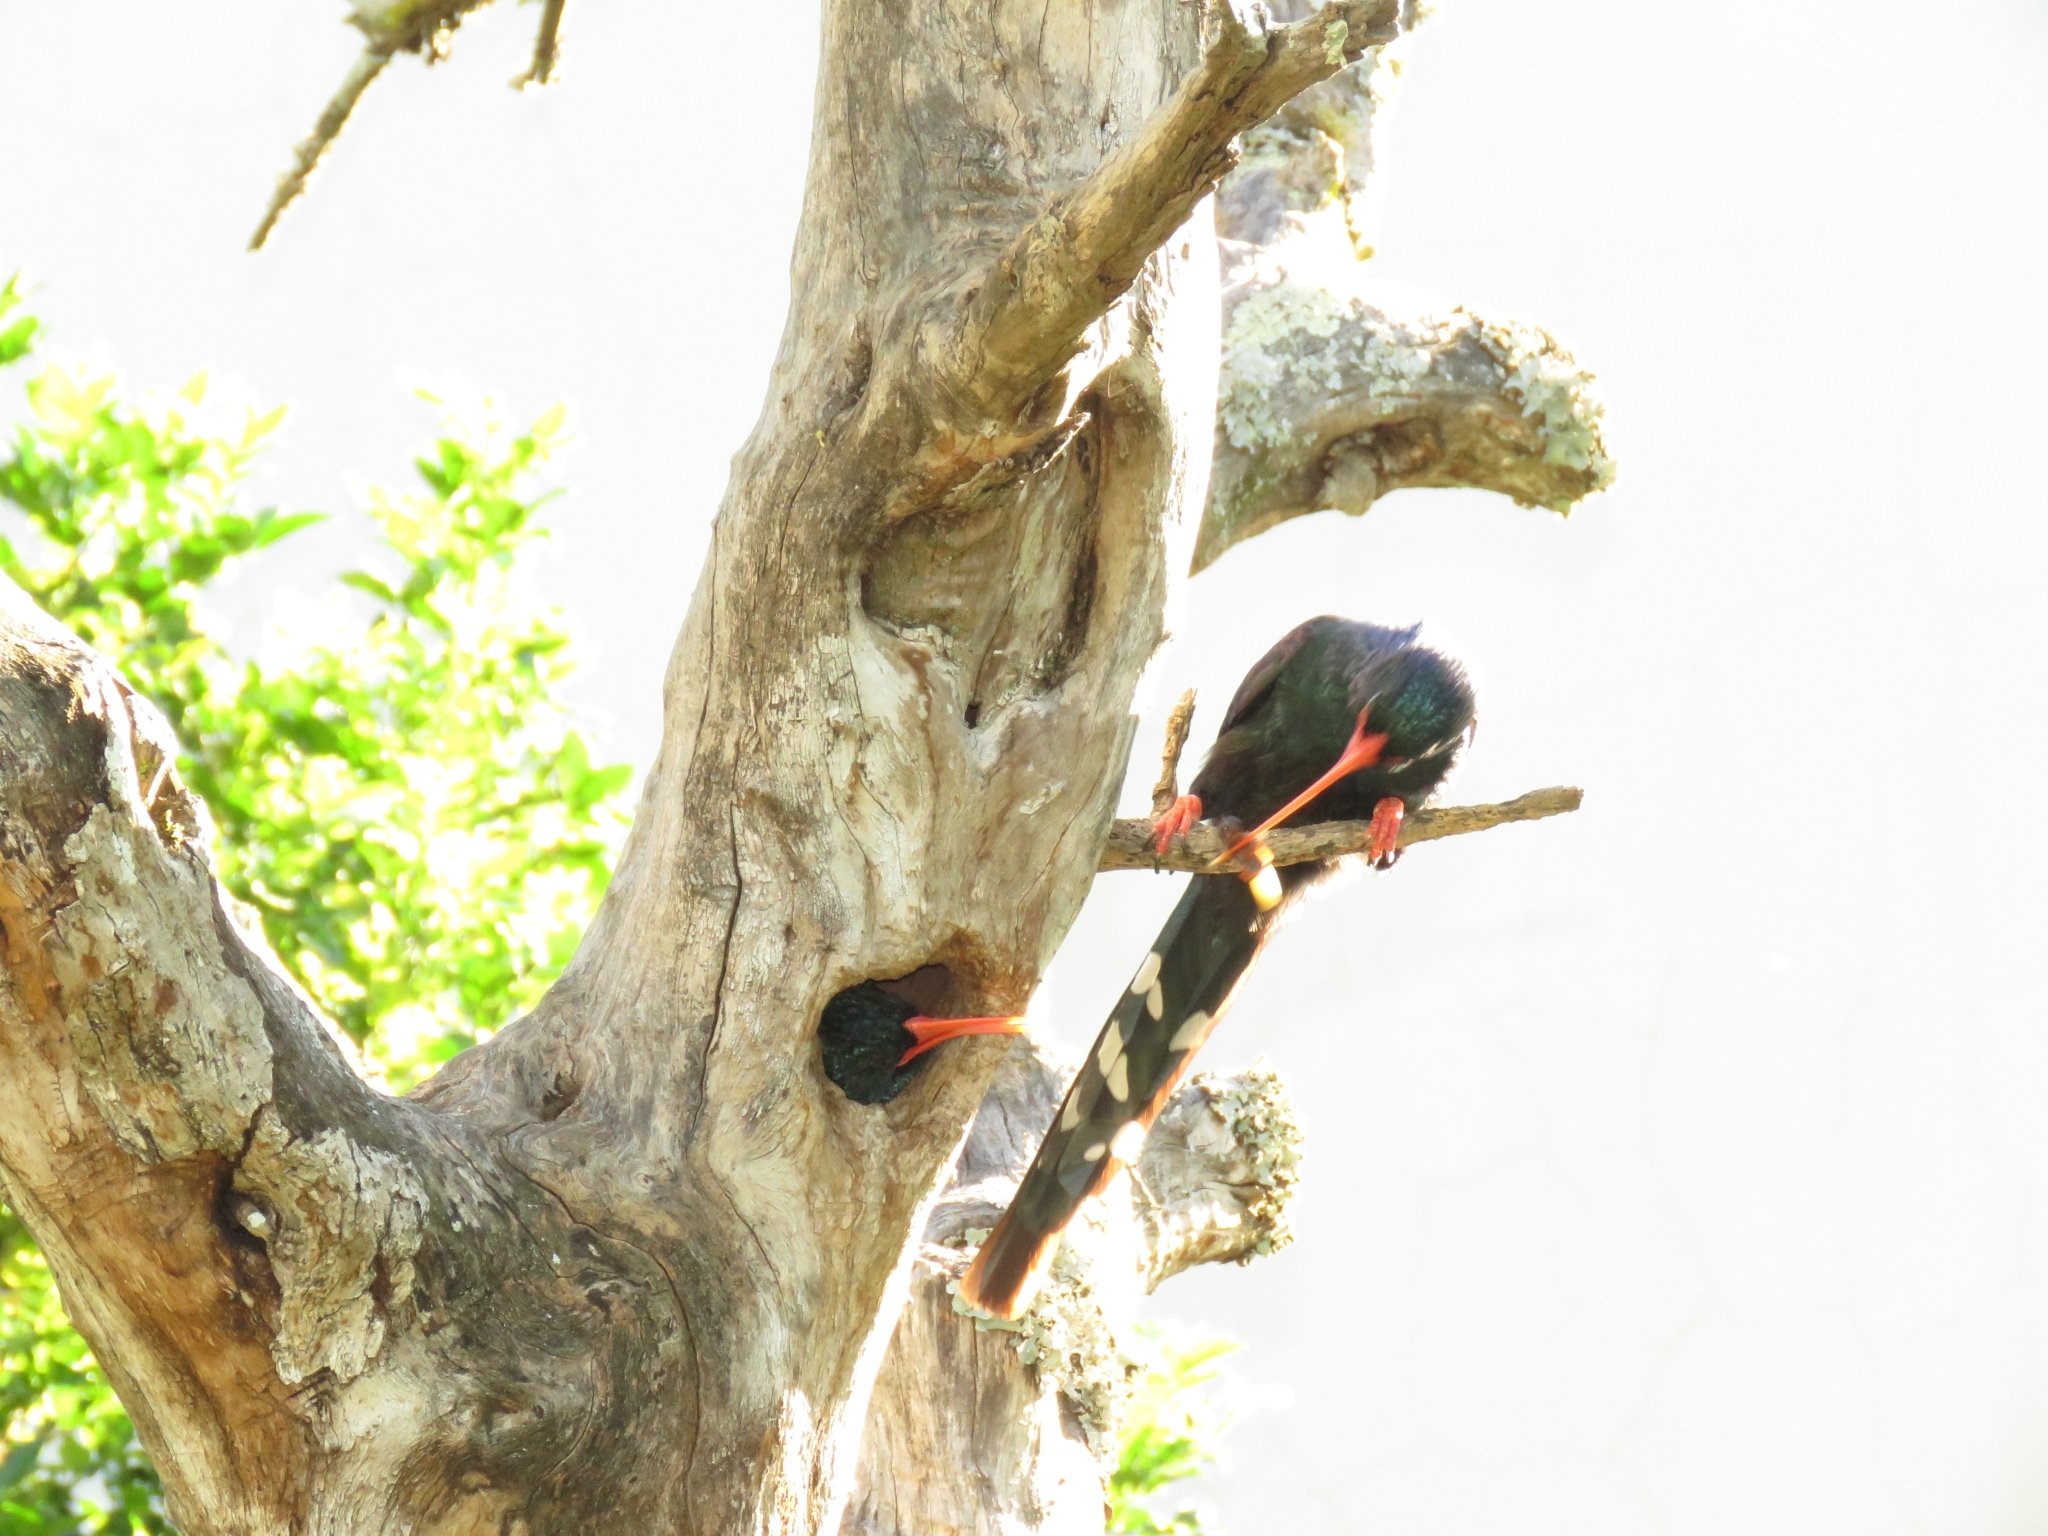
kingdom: Animalia
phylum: Chordata
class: Aves
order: Bucerotiformes
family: Phoeniculidae
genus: Phoeniculus
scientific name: Phoeniculus purpureus
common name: Green woodhoopoe
